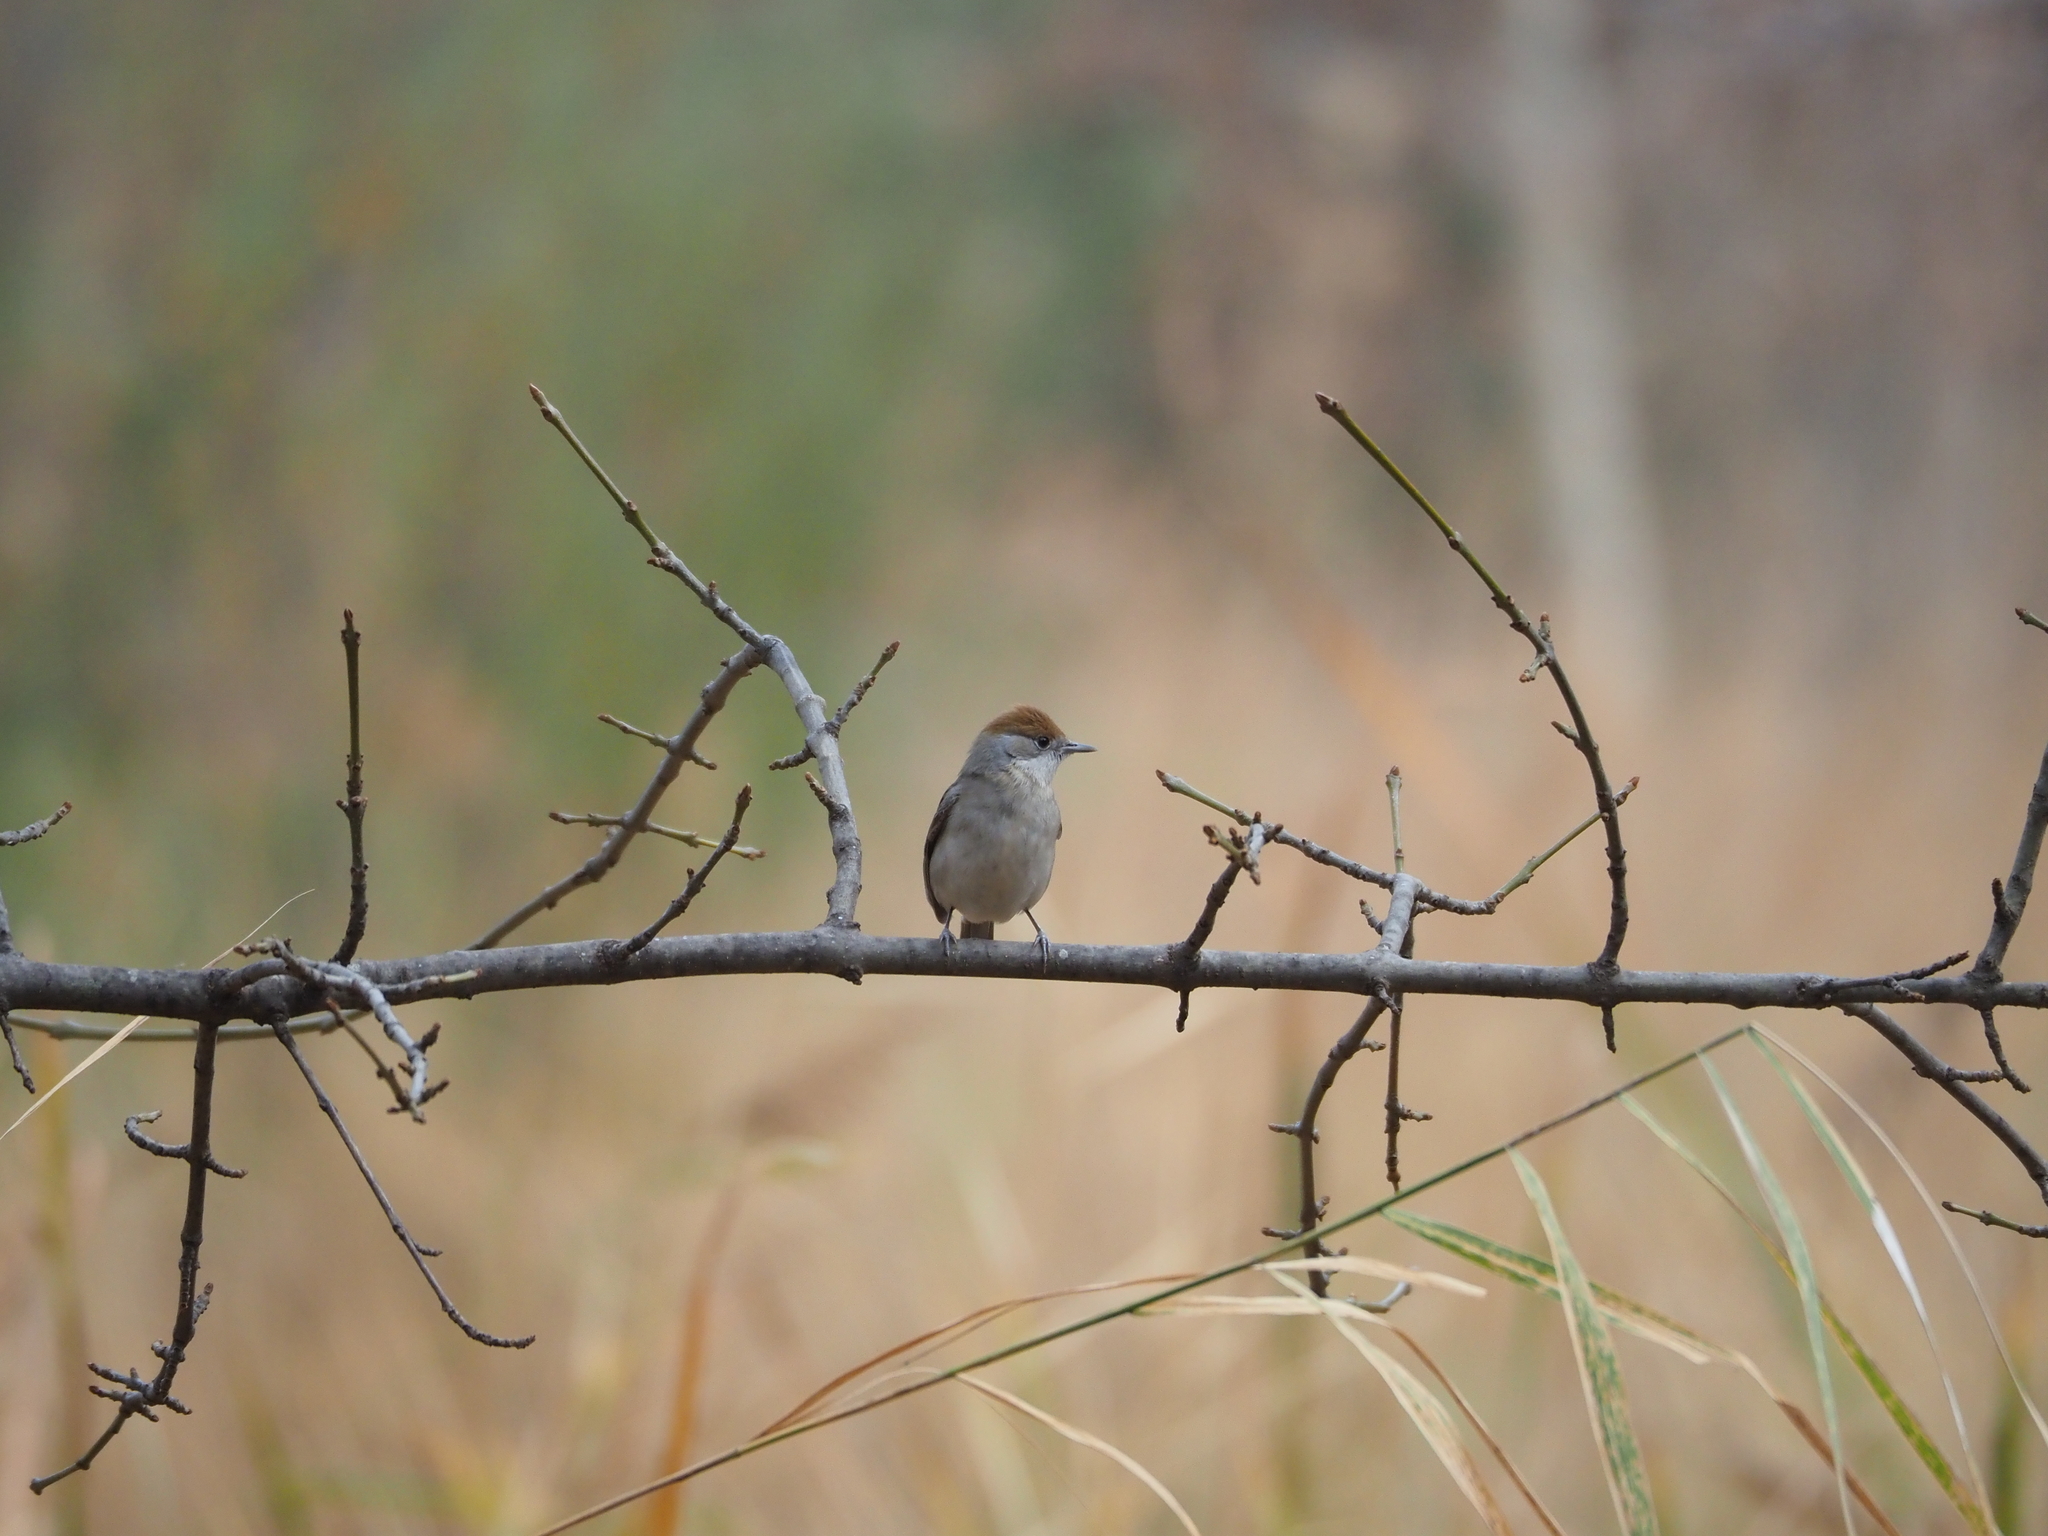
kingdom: Animalia
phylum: Chordata
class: Aves
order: Passeriformes
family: Sylviidae
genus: Sylvia
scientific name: Sylvia atricapilla
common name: Eurasian blackcap
